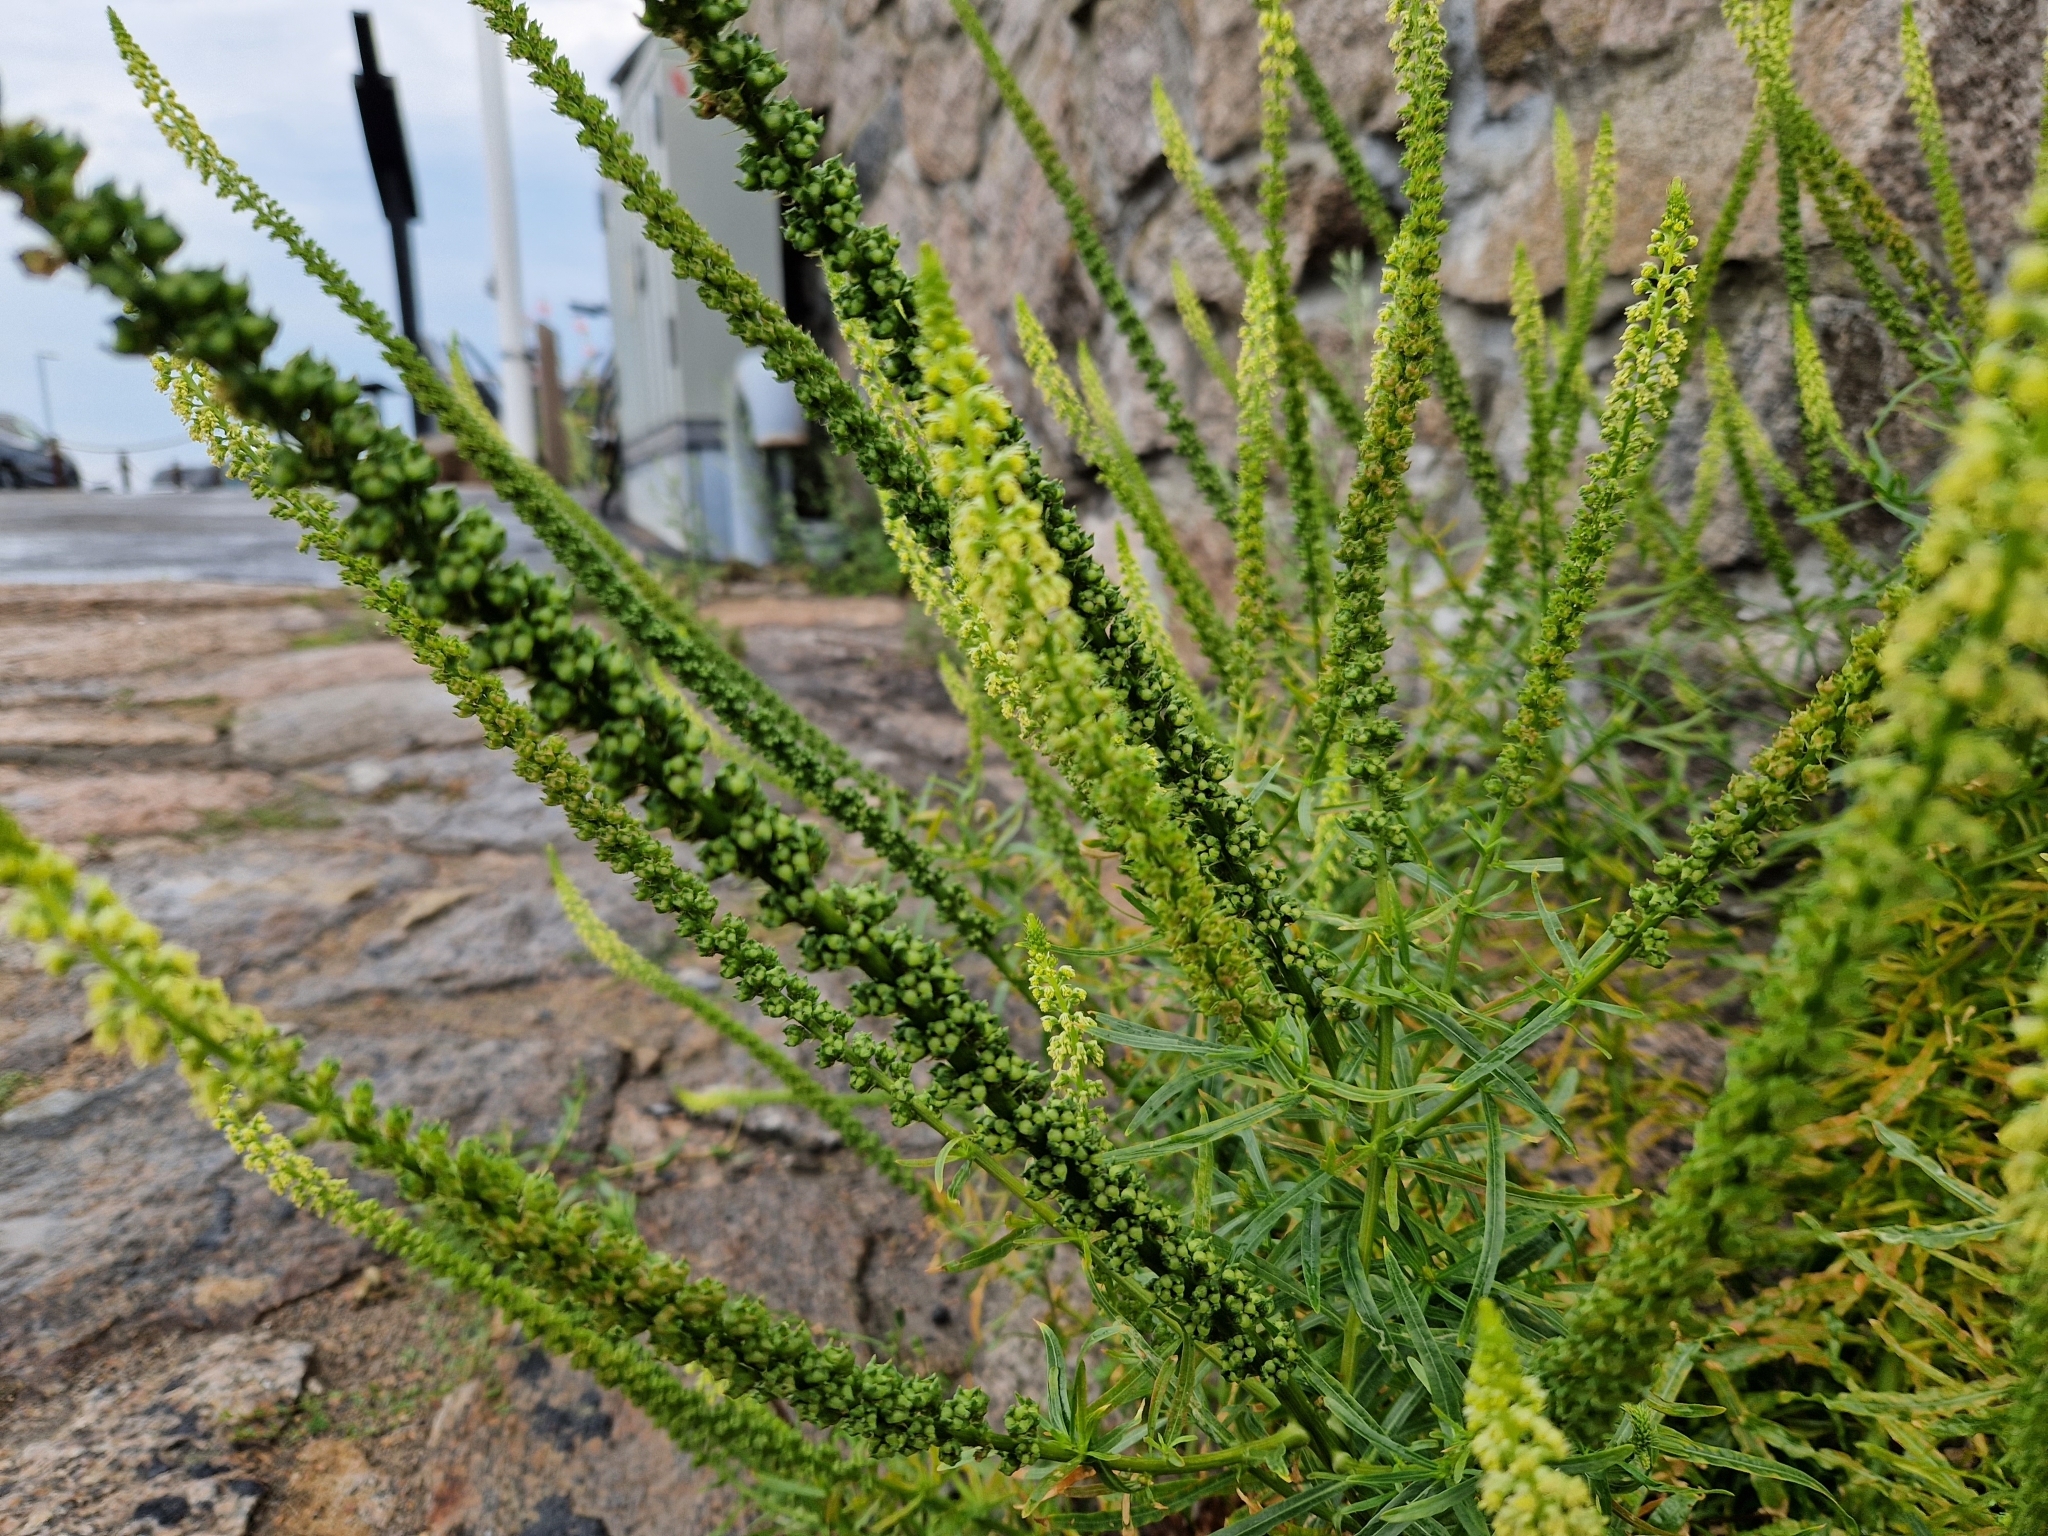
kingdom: Plantae
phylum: Tracheophyta
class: Magnoliopsida
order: Brassicales
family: Resedaceae
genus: Reseda
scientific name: Reseda luteola
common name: Weld
